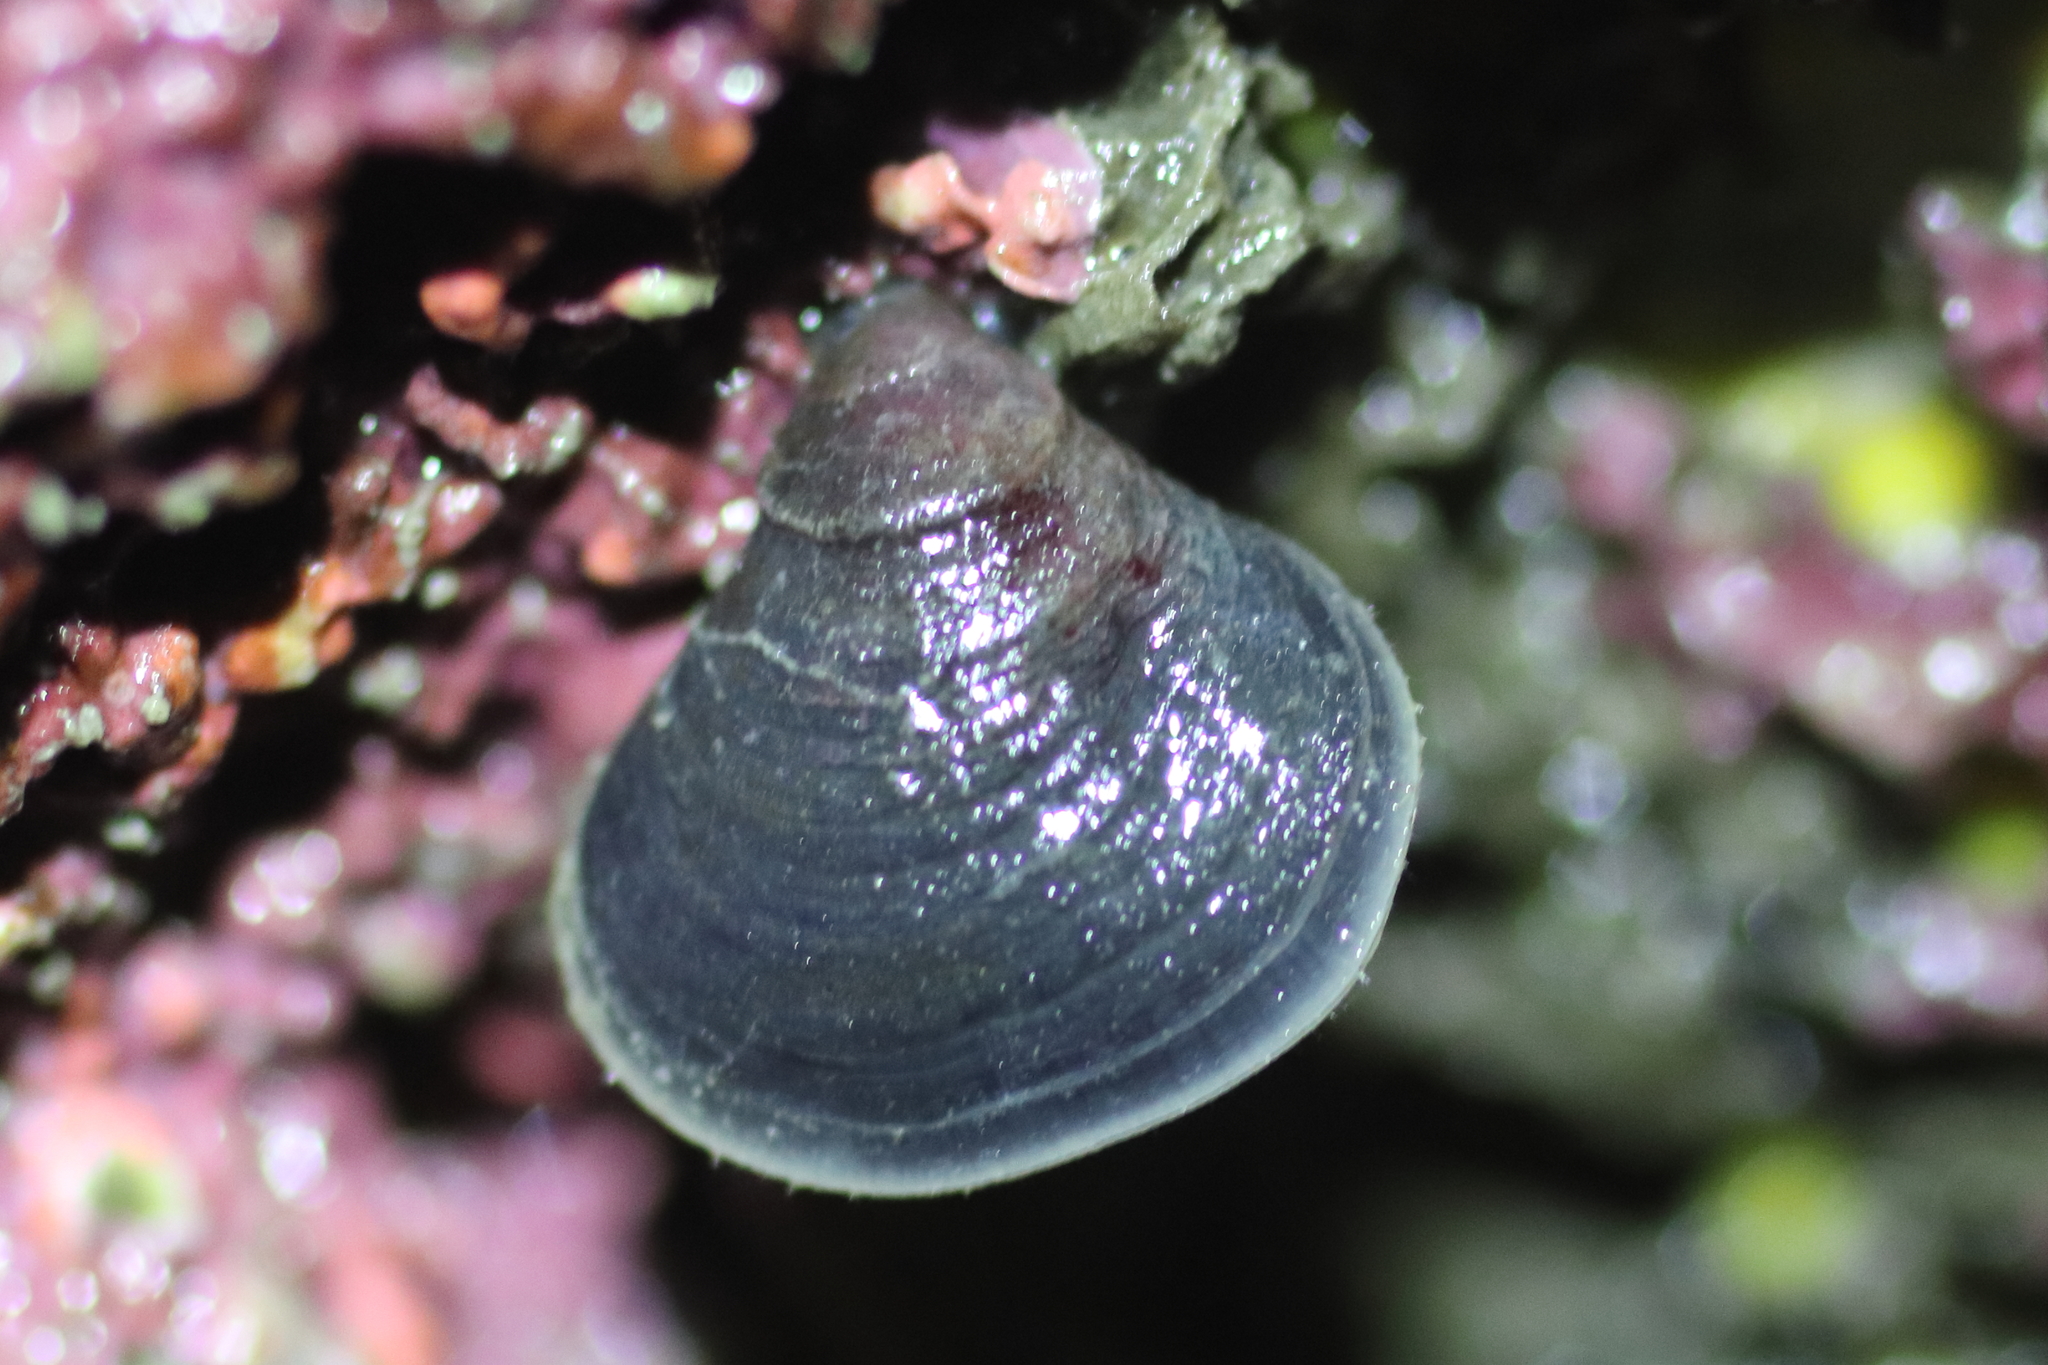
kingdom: Animalia
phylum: Brachiopoda
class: Rhynchonellata
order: Rhynchonellida
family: Hemithirididae
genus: Hemithiris
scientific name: Hemithiris psittacea
